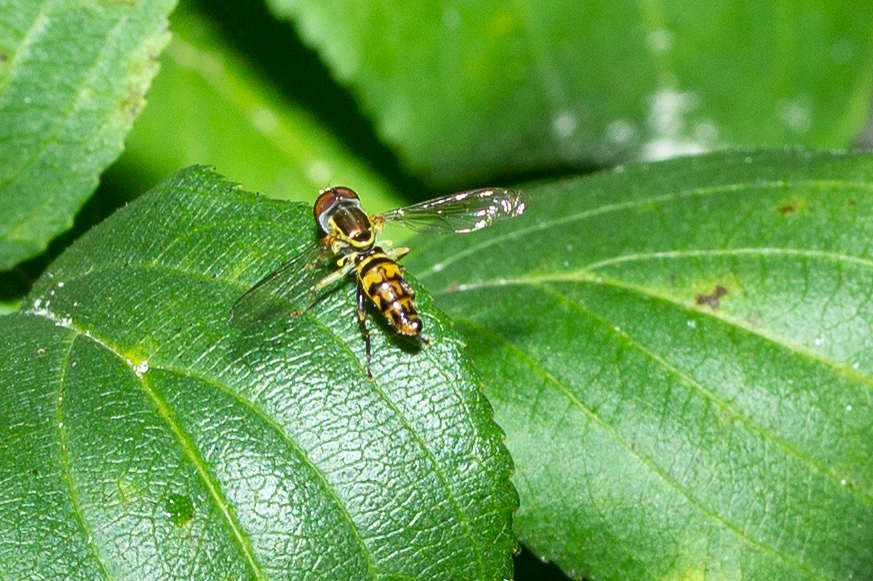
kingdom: Animalia
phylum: Arthropoda
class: Insecta
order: Diptera
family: Syrphidae
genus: Toxomerus
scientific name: Toxomerus geminatus
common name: Eastern calligrapher
